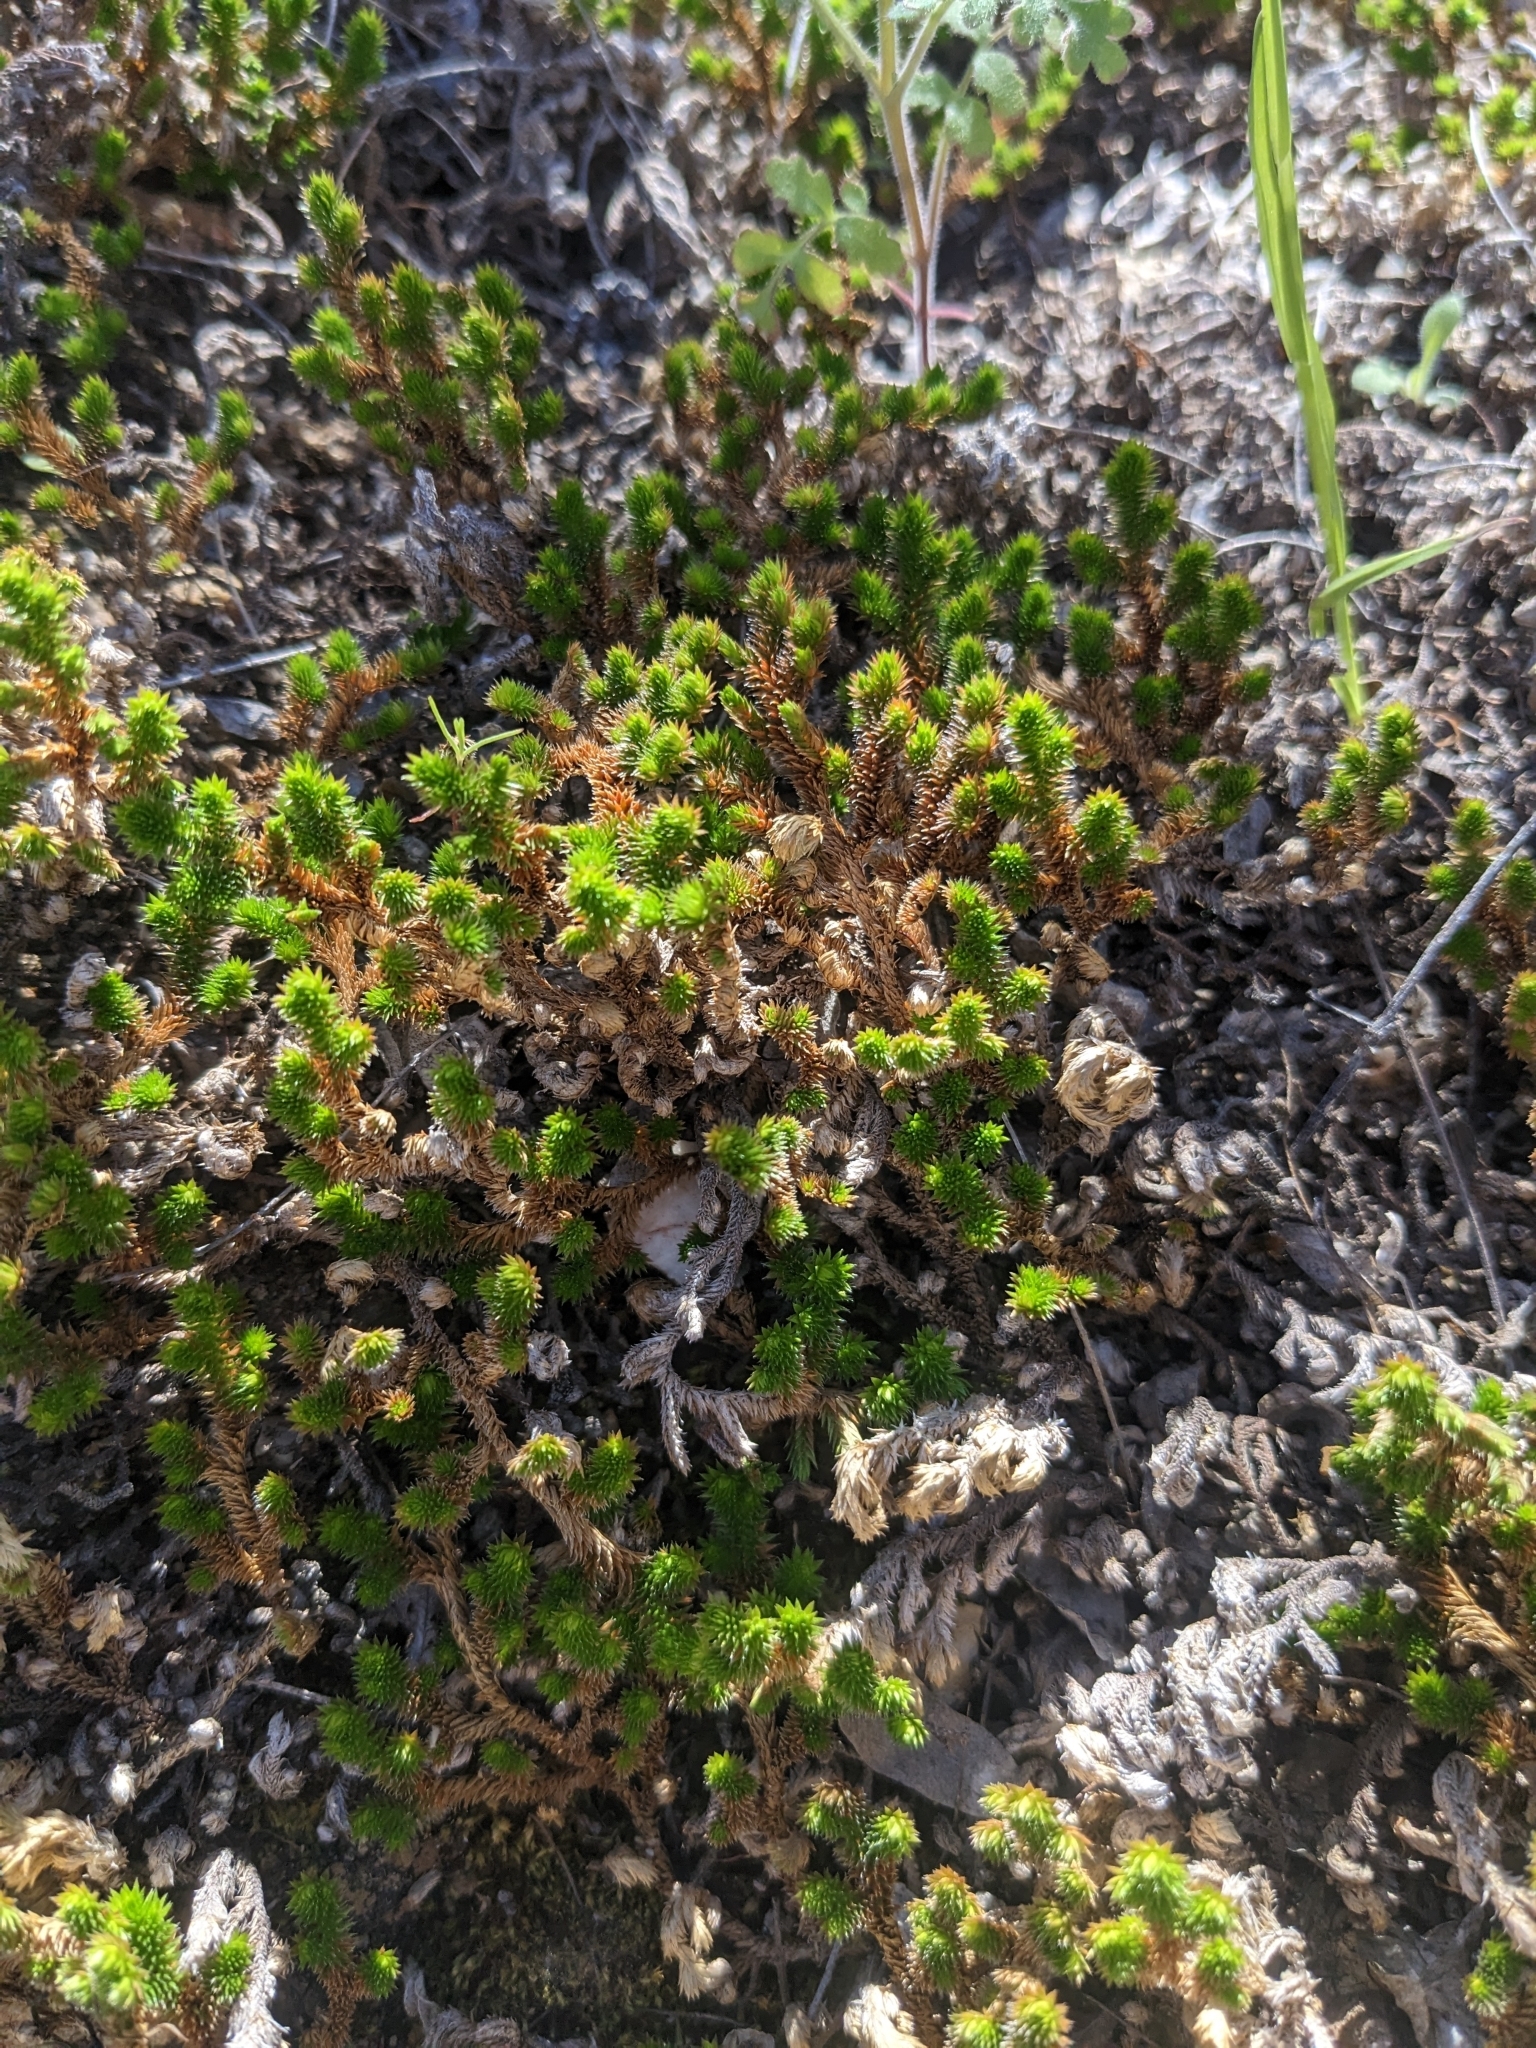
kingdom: Plantae
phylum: Tracheophyta
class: Lycopodiopsida
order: Selaginellales
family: Selaginellaceae
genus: Selaginella
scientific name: Selaginella arizonica
